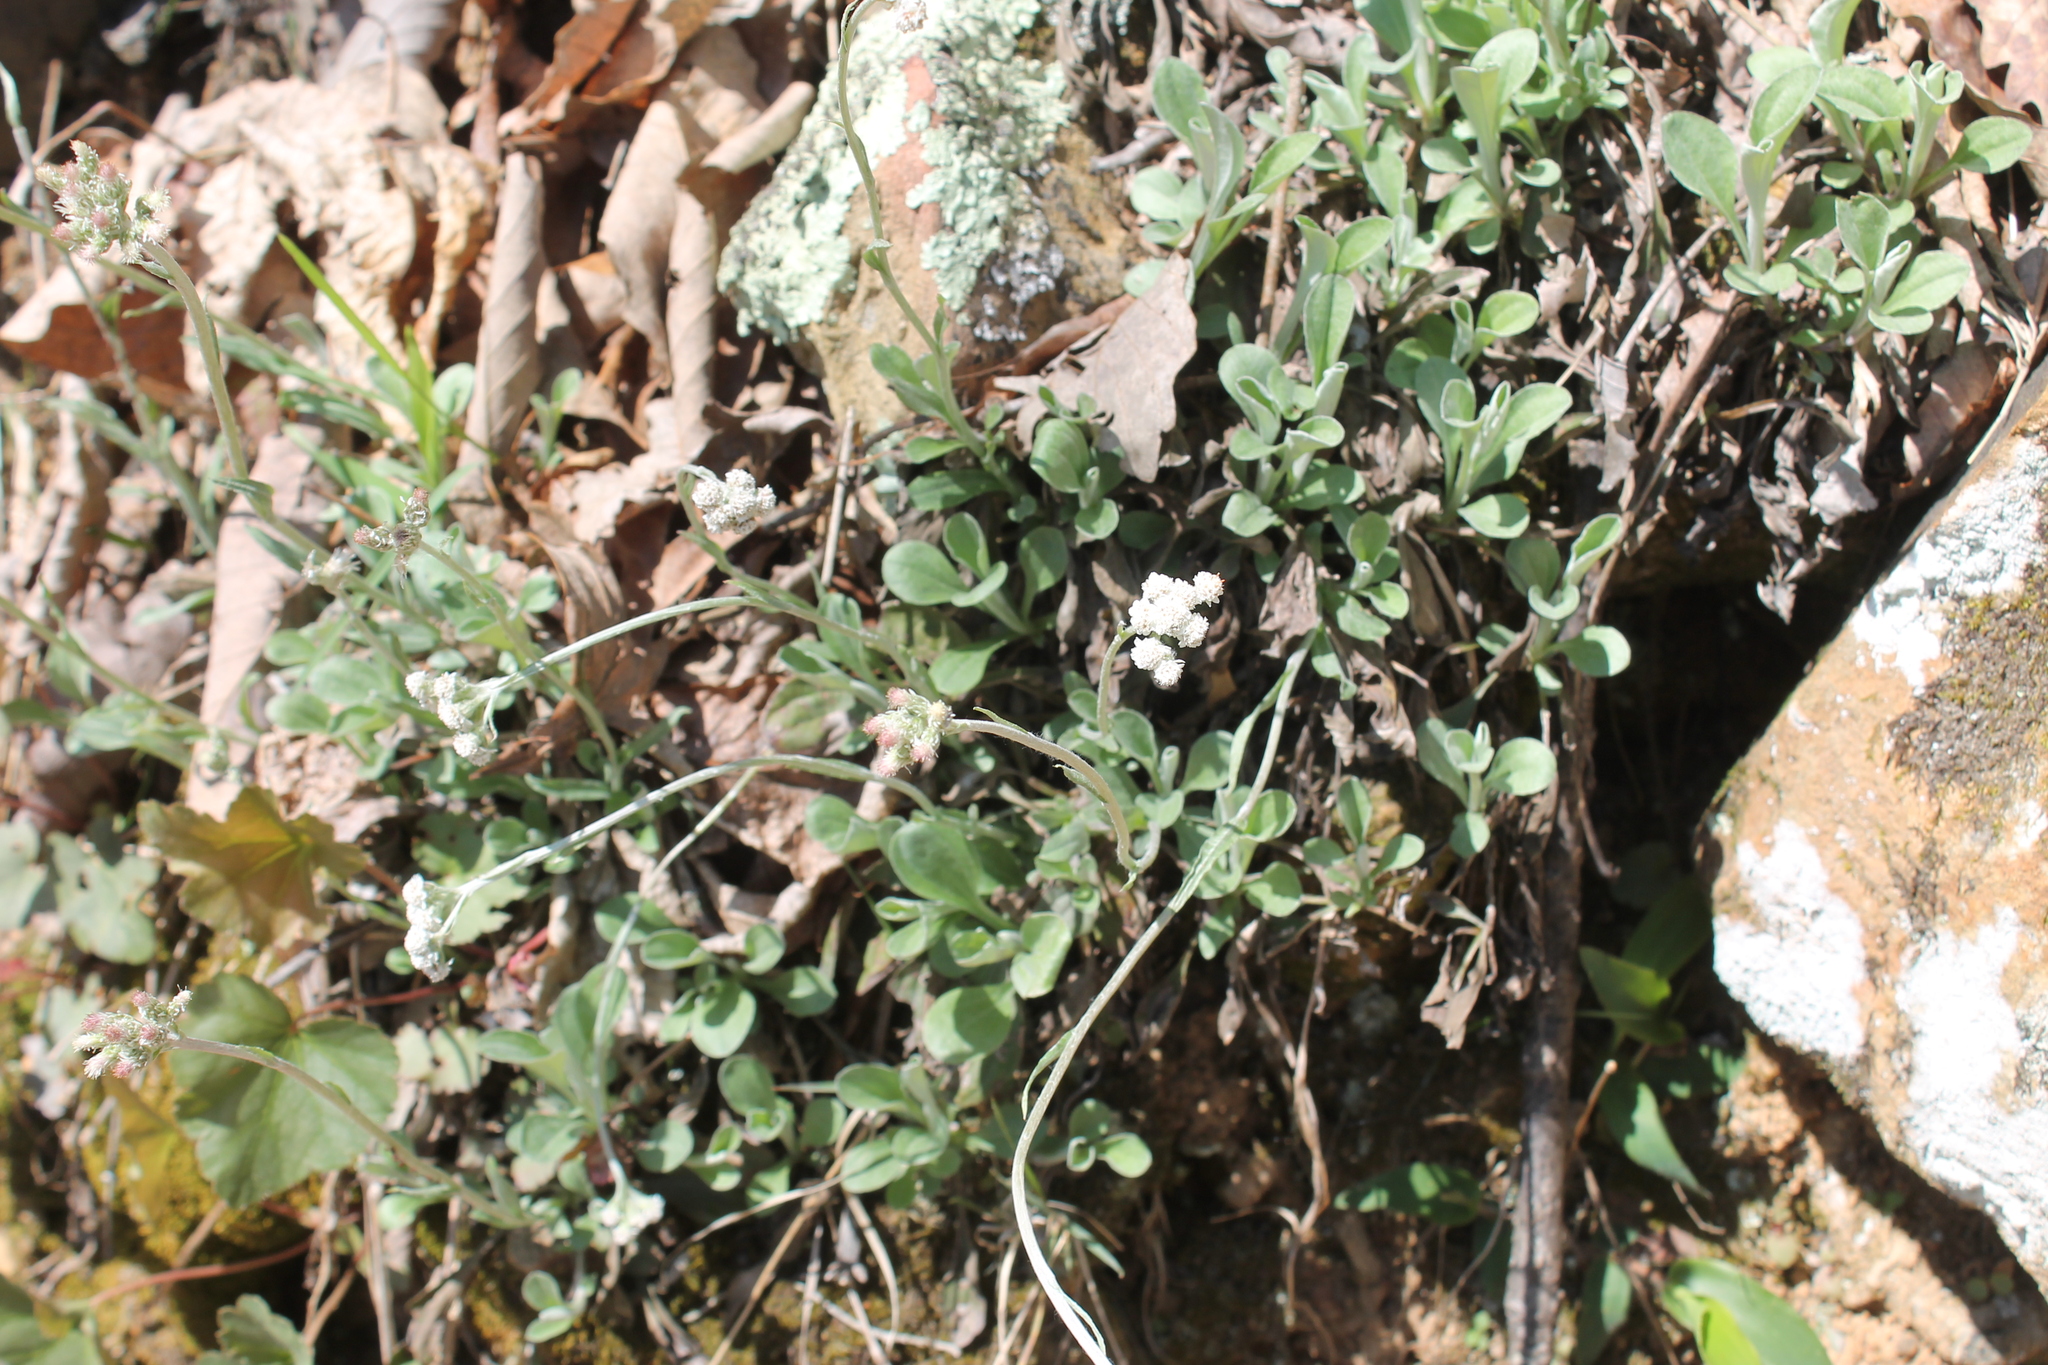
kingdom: Plantae
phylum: Tracheophyta
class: Magnoliopsida
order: Asterales
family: Asteraceae
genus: Antennaria
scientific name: Antennaria plantaginifolia
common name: Plantain-leaved pussytoes
